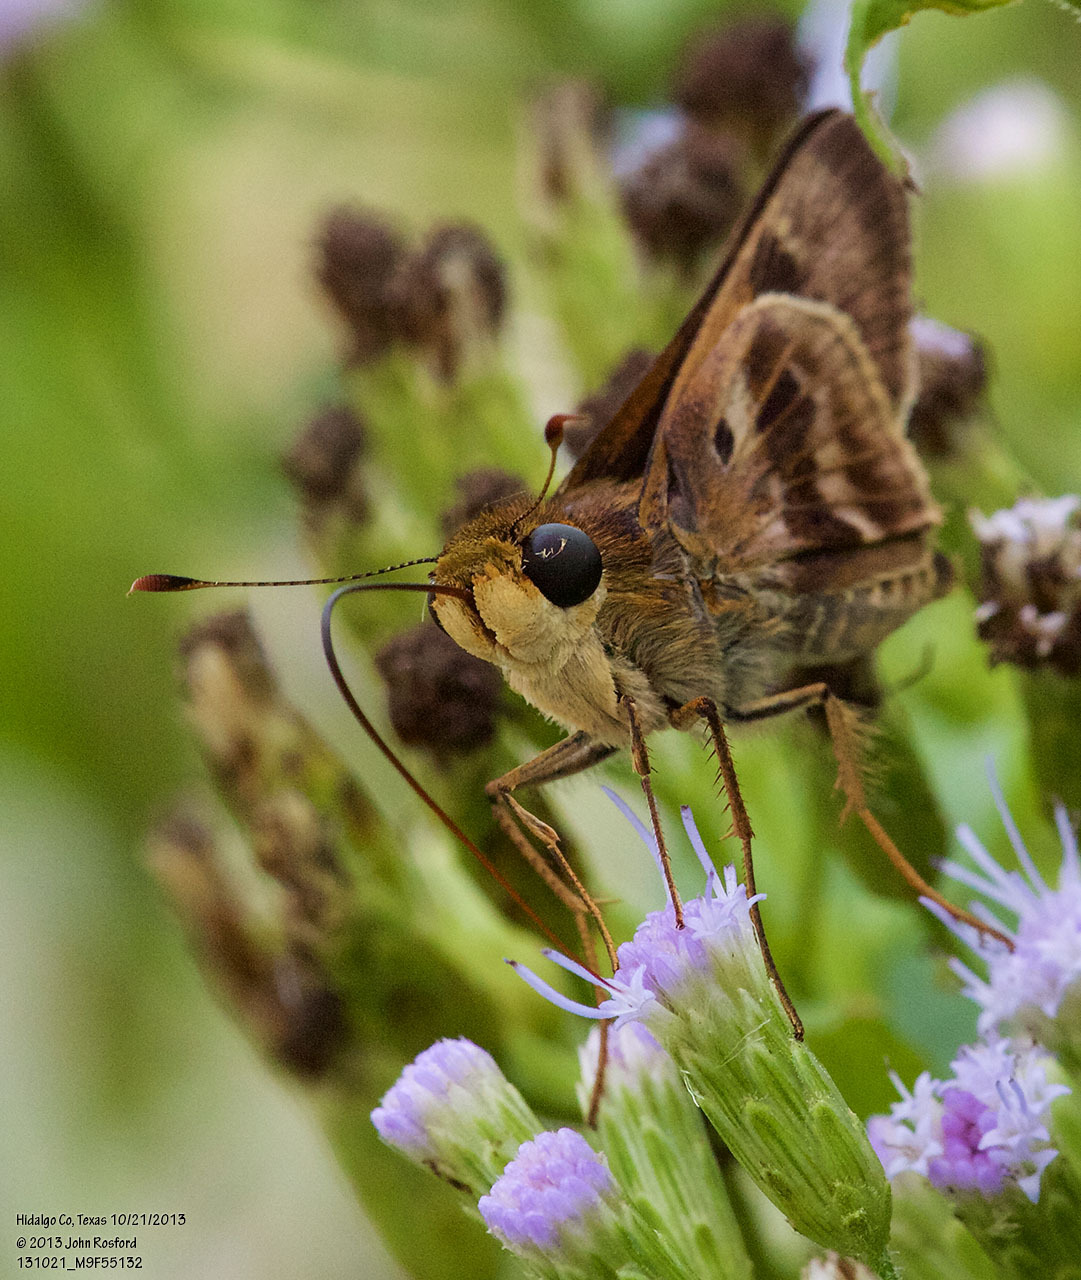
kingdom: Animalia
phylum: Arthropoda
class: Insecta
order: Lepidoptera
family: Hesperiidae
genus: Nyctelius
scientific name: Nyctelius nyctelius
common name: Violet-banded skipper
